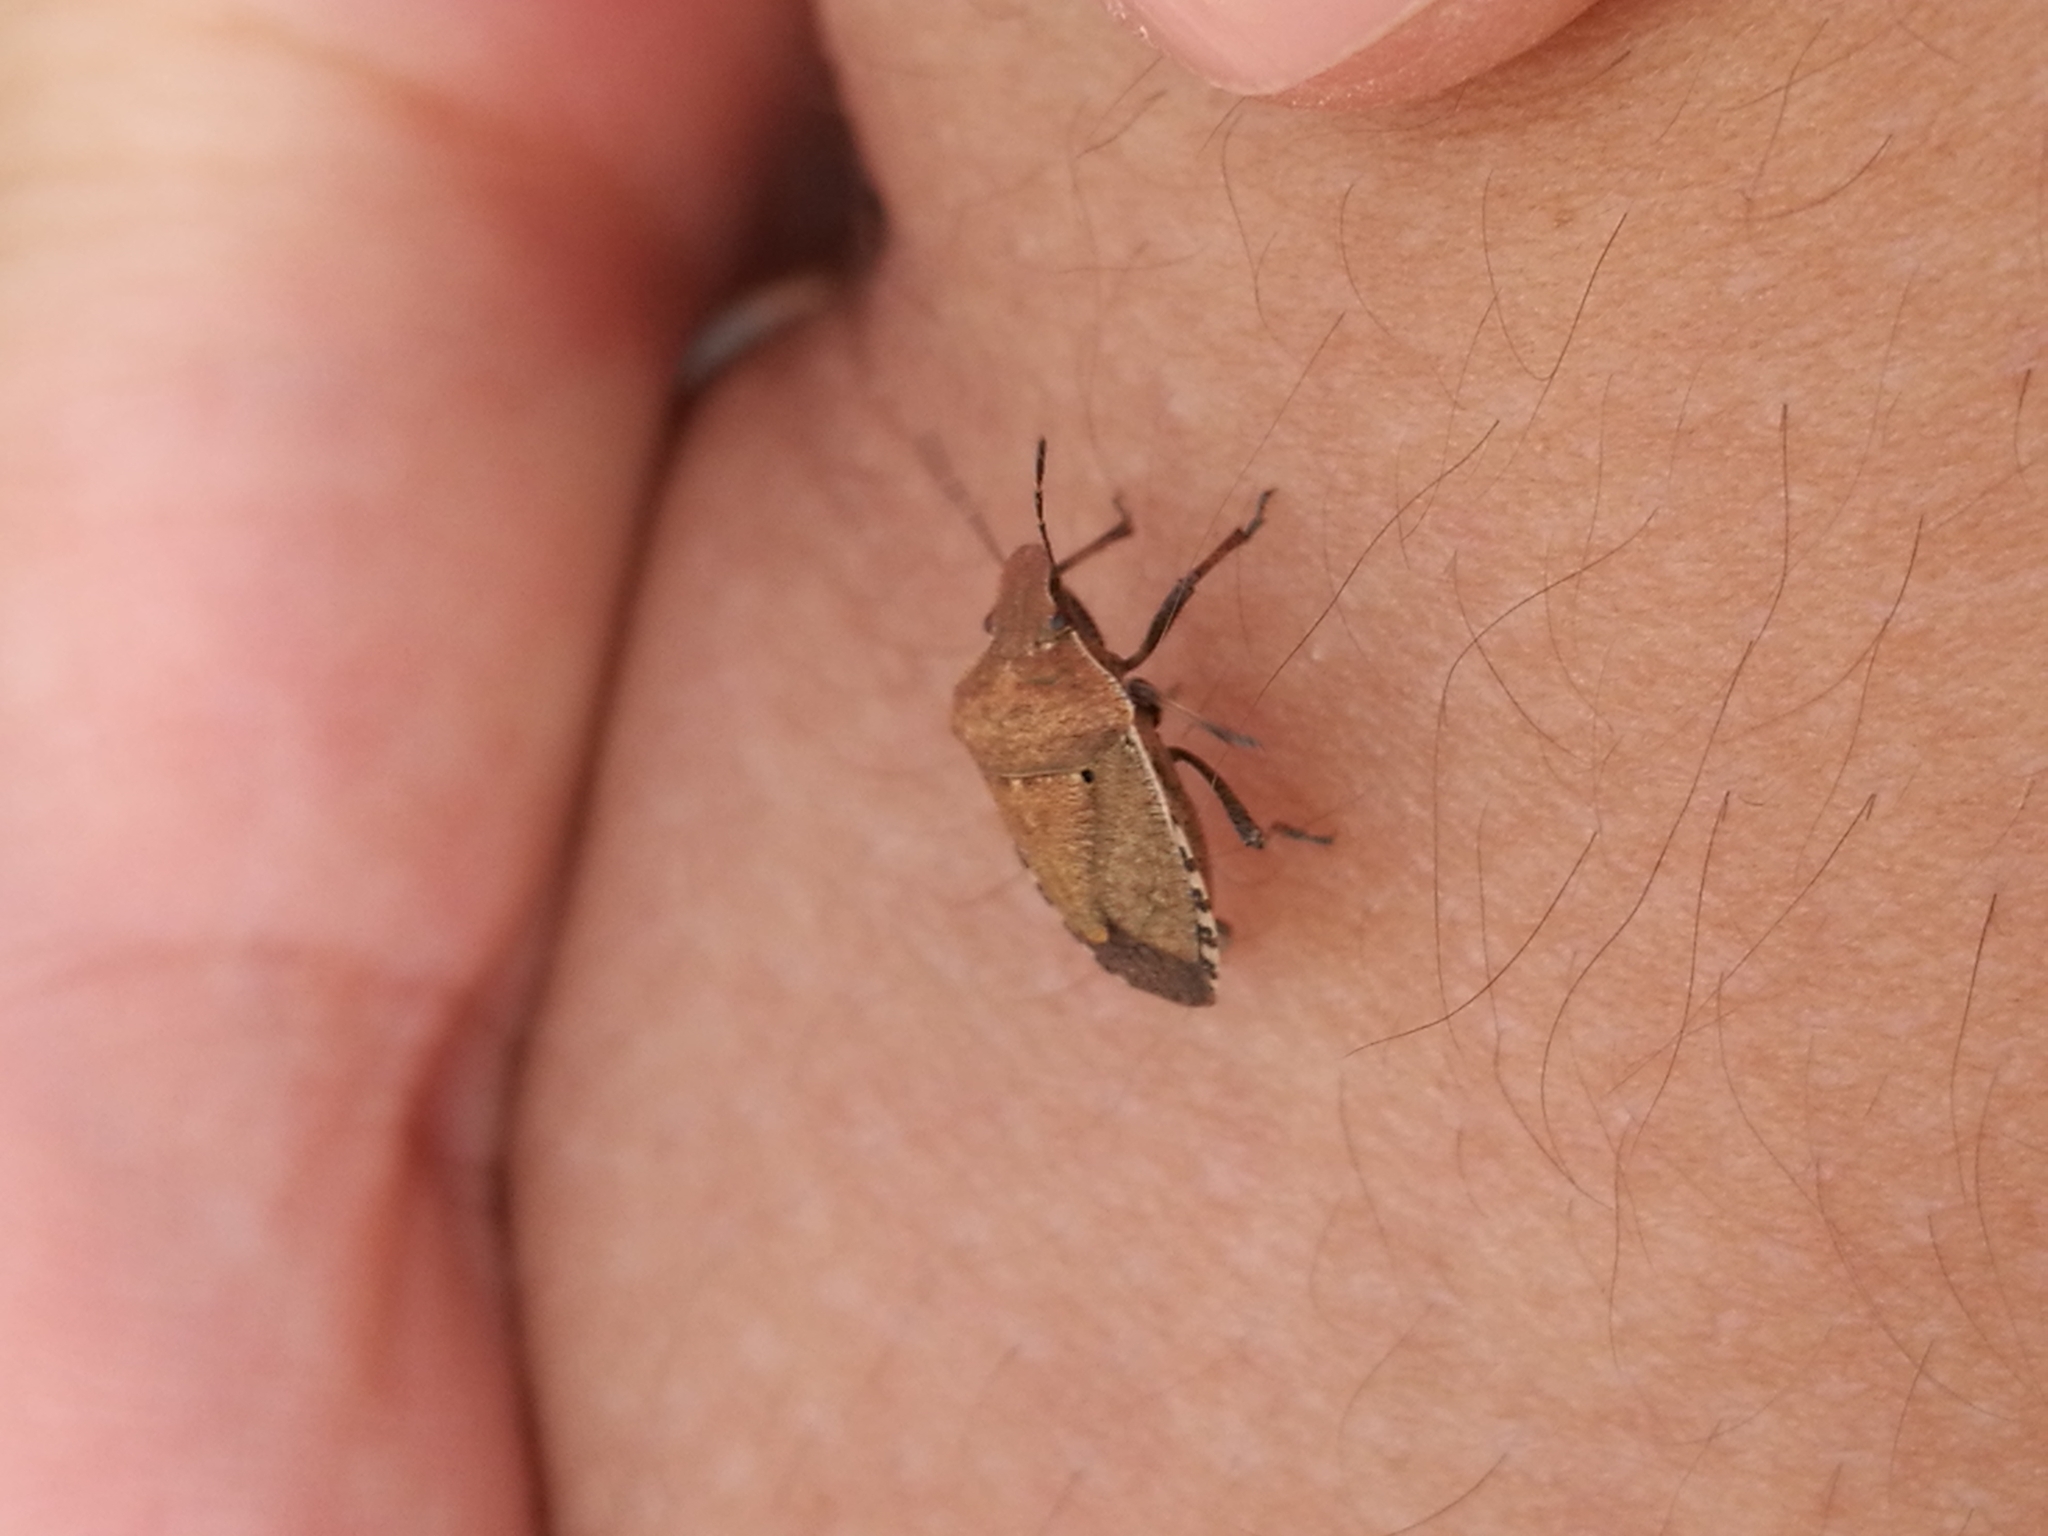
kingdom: Animalia
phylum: Arthropoda
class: Insecta
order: Hemiptera
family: Pentatomidae
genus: Dictyotus
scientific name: Dictyotus caenosus
